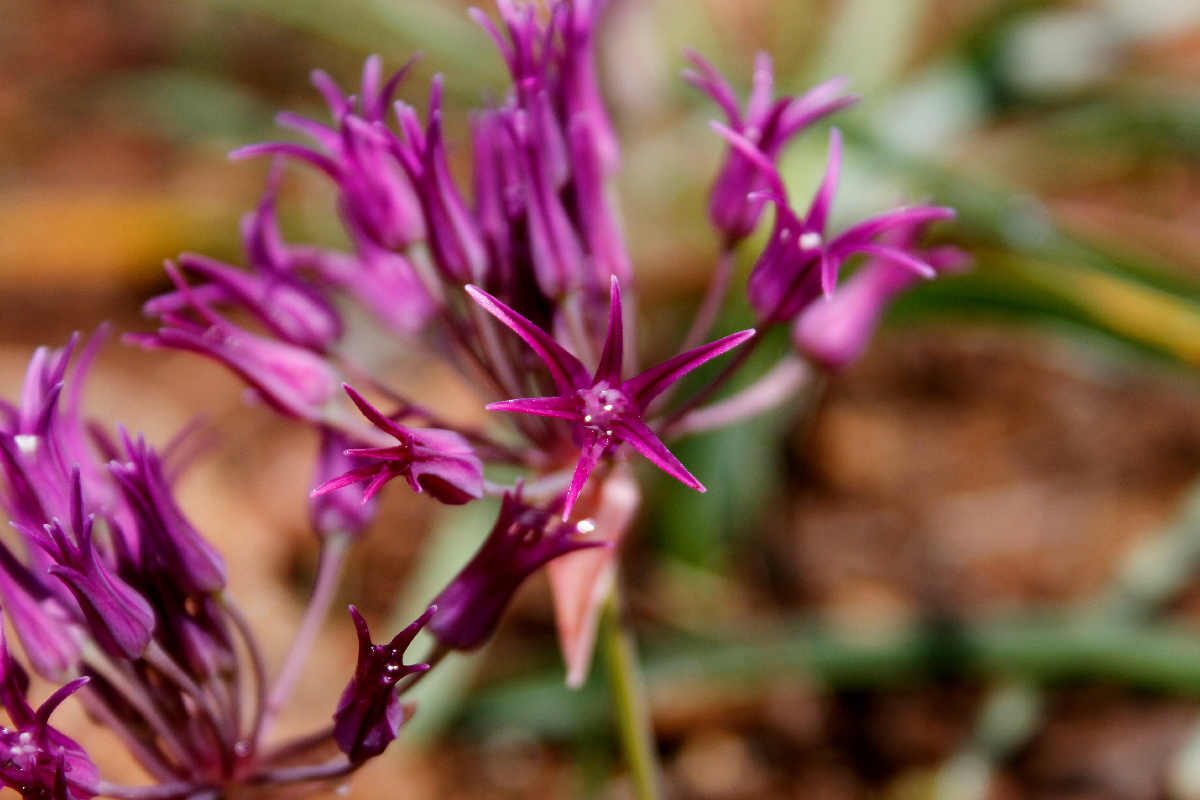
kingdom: Plantae
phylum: Tracheophyta
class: Liliopsida
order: Asparagales
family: Amaryllidaceae
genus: Allium
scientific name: Allium falcifolium
